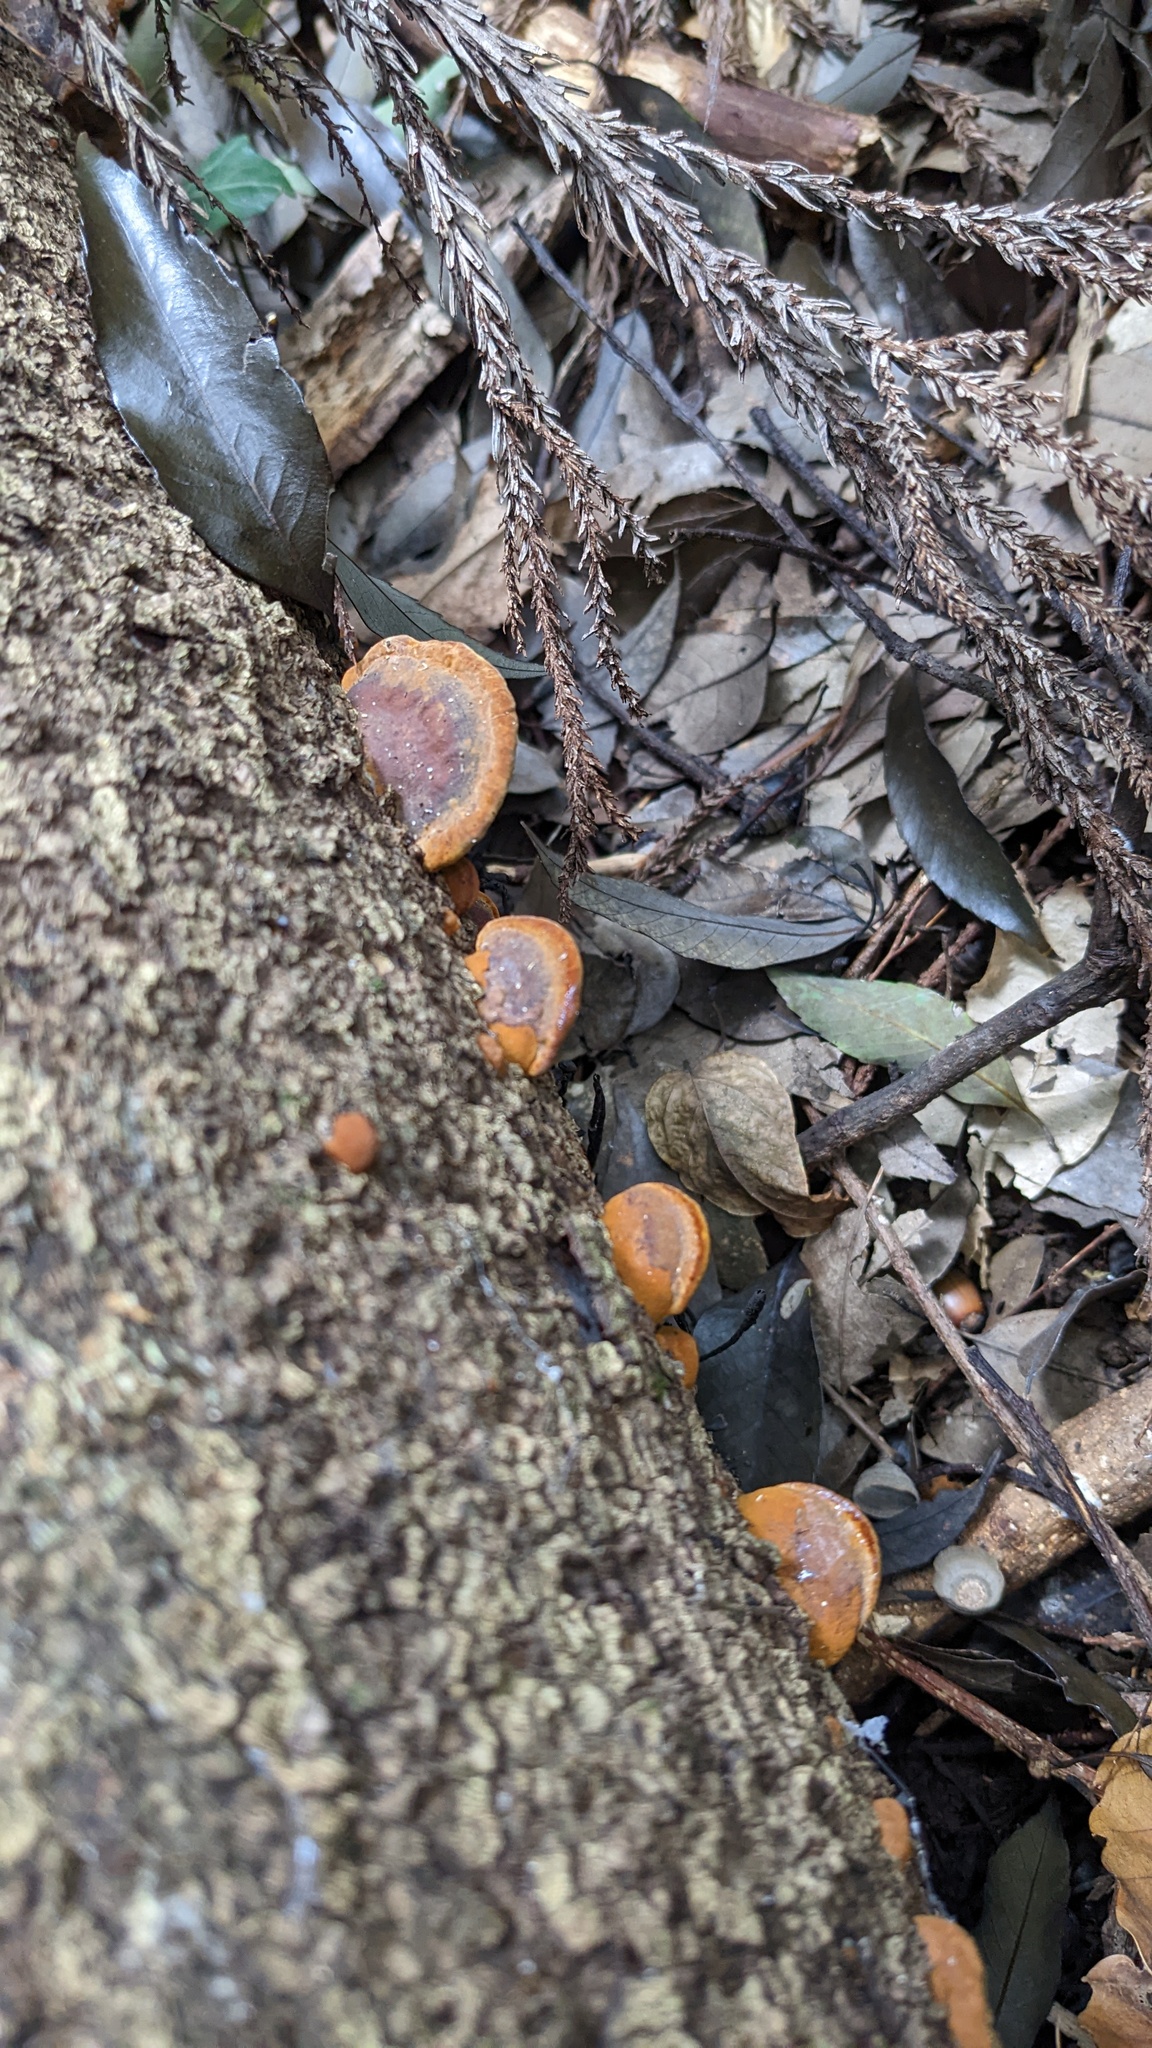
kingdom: Fungi
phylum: Basidiomycota
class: Agaricomycetes
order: Hymenochaetales
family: Hymenochaetaceae
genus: Phellinus
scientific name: Phellinus gilvus
